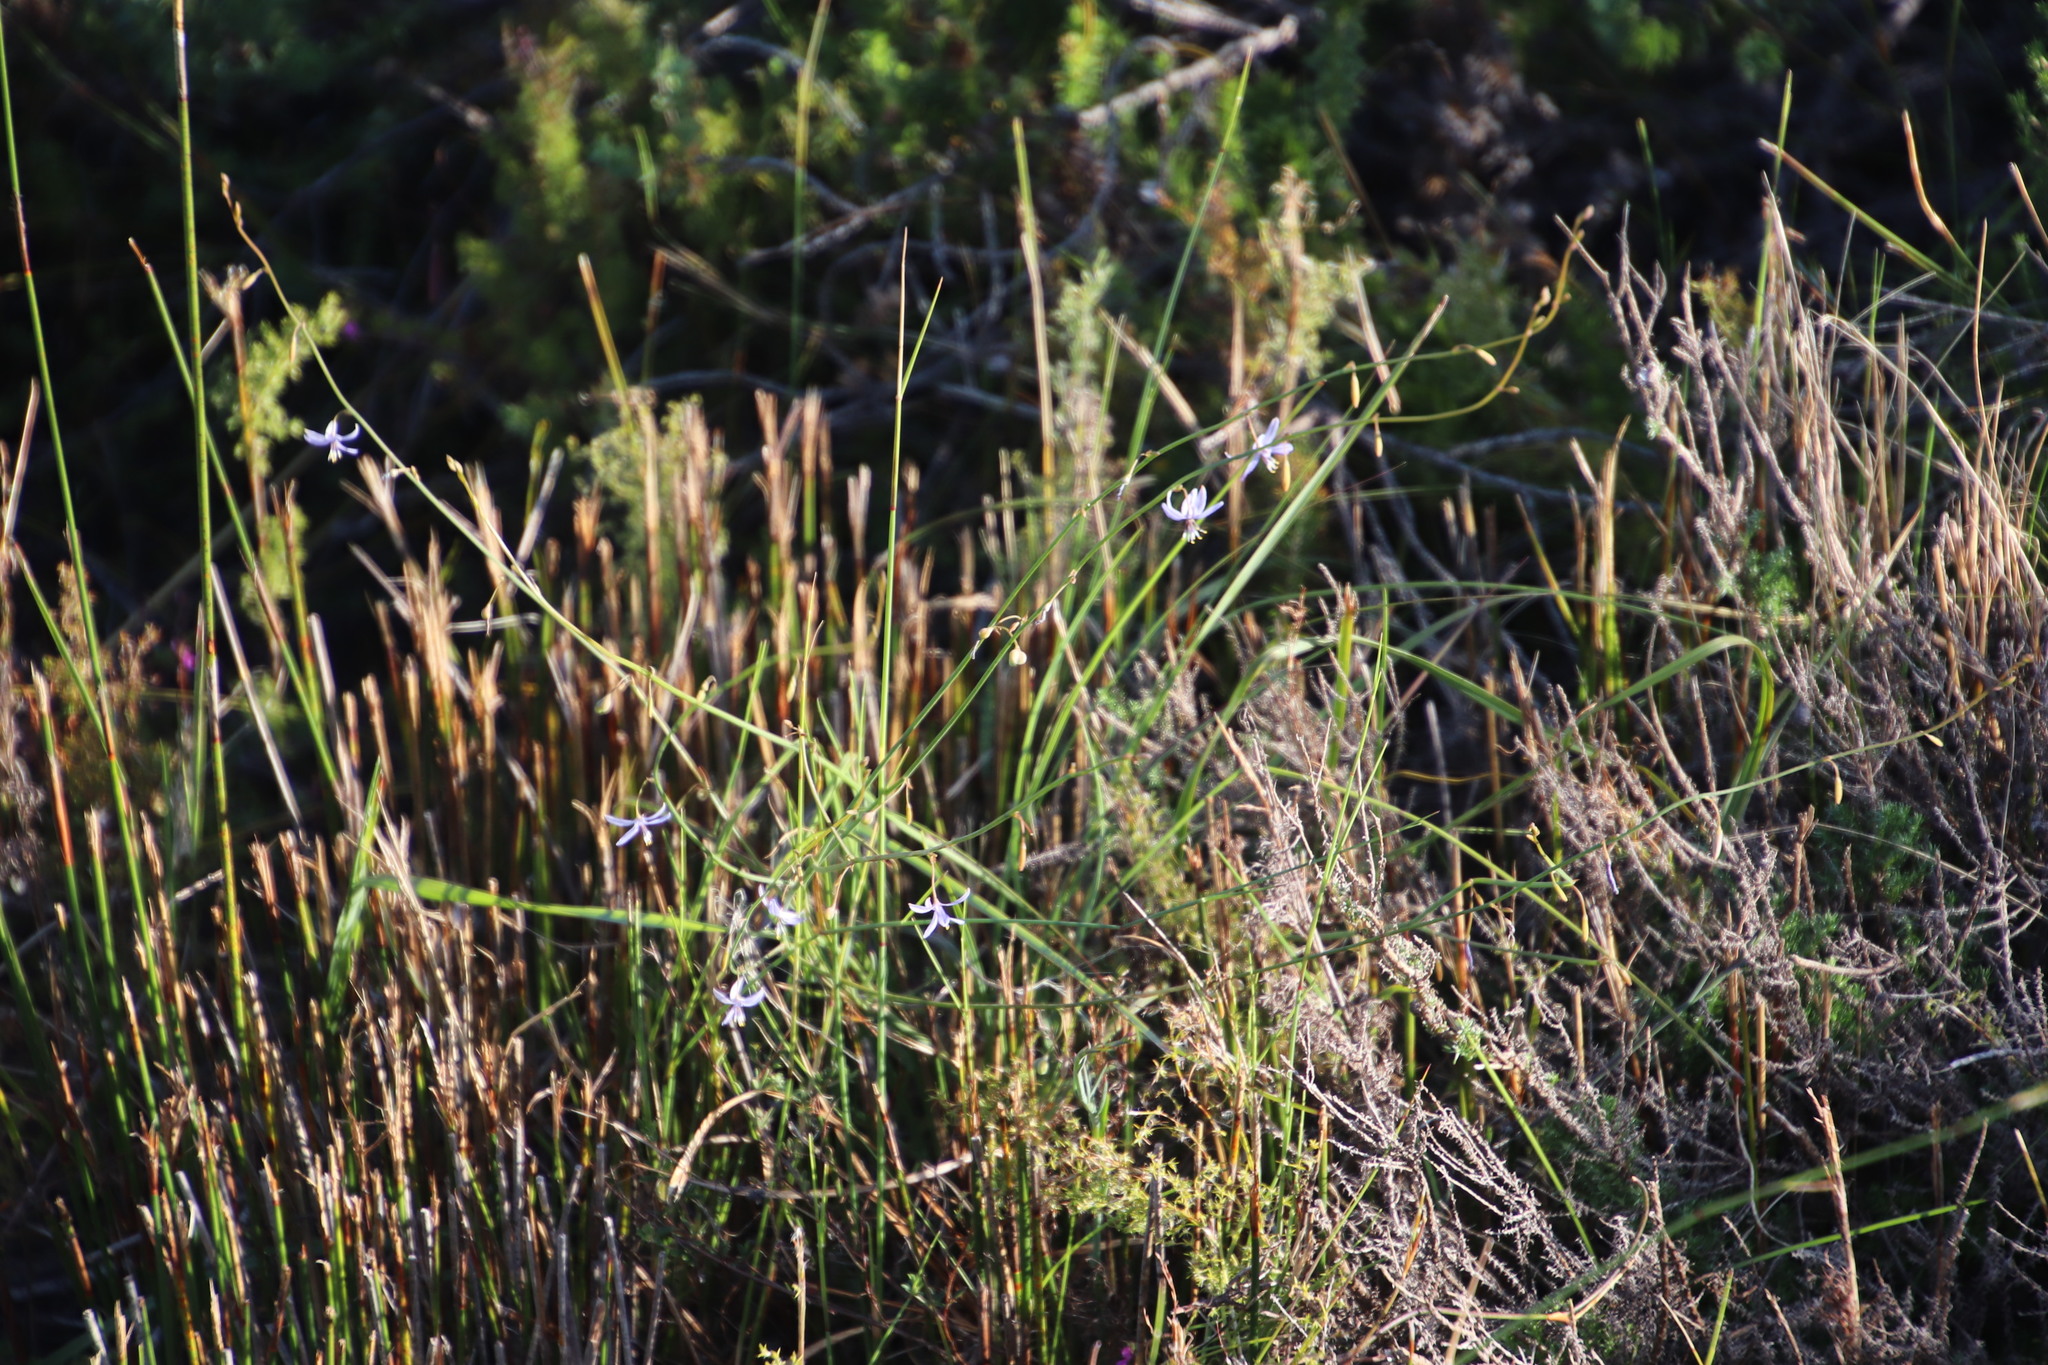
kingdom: Plantae
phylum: Tracheophyta
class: Liliopsida
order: Asparagales
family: Asphodelaceae
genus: Caesia
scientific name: Caesia contorta
